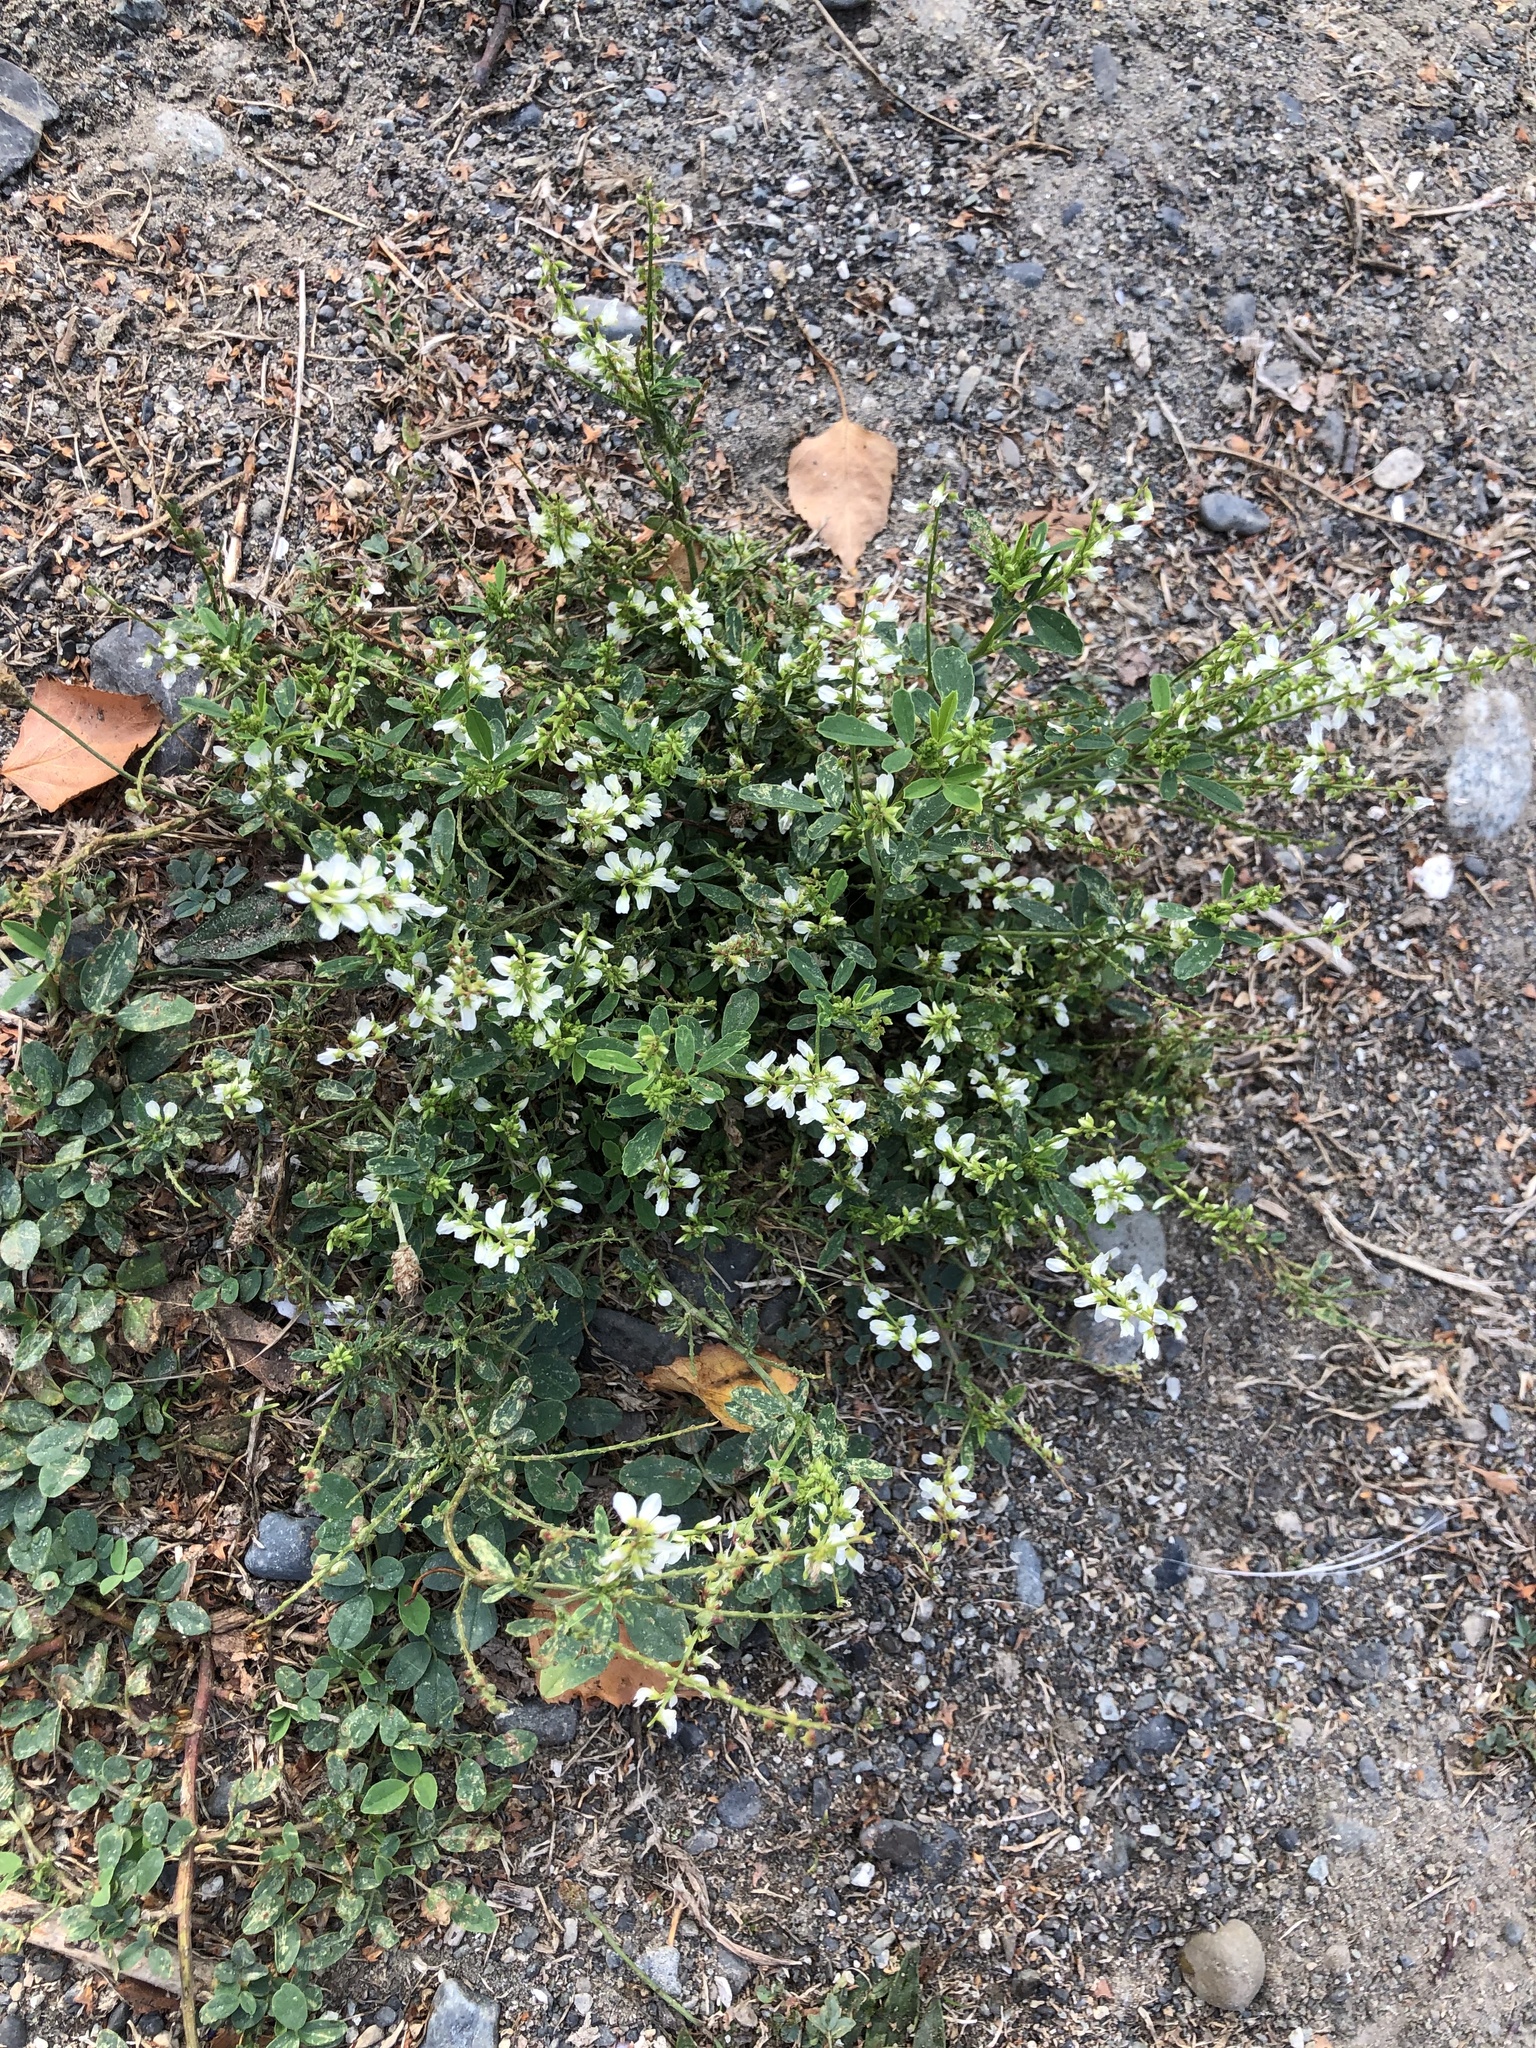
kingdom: Plantae
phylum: Tracheophyta
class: Magnoliopsida
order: Fabales
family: Fabaceae
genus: Melilotus
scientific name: Melilotus albus
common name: White melilot
